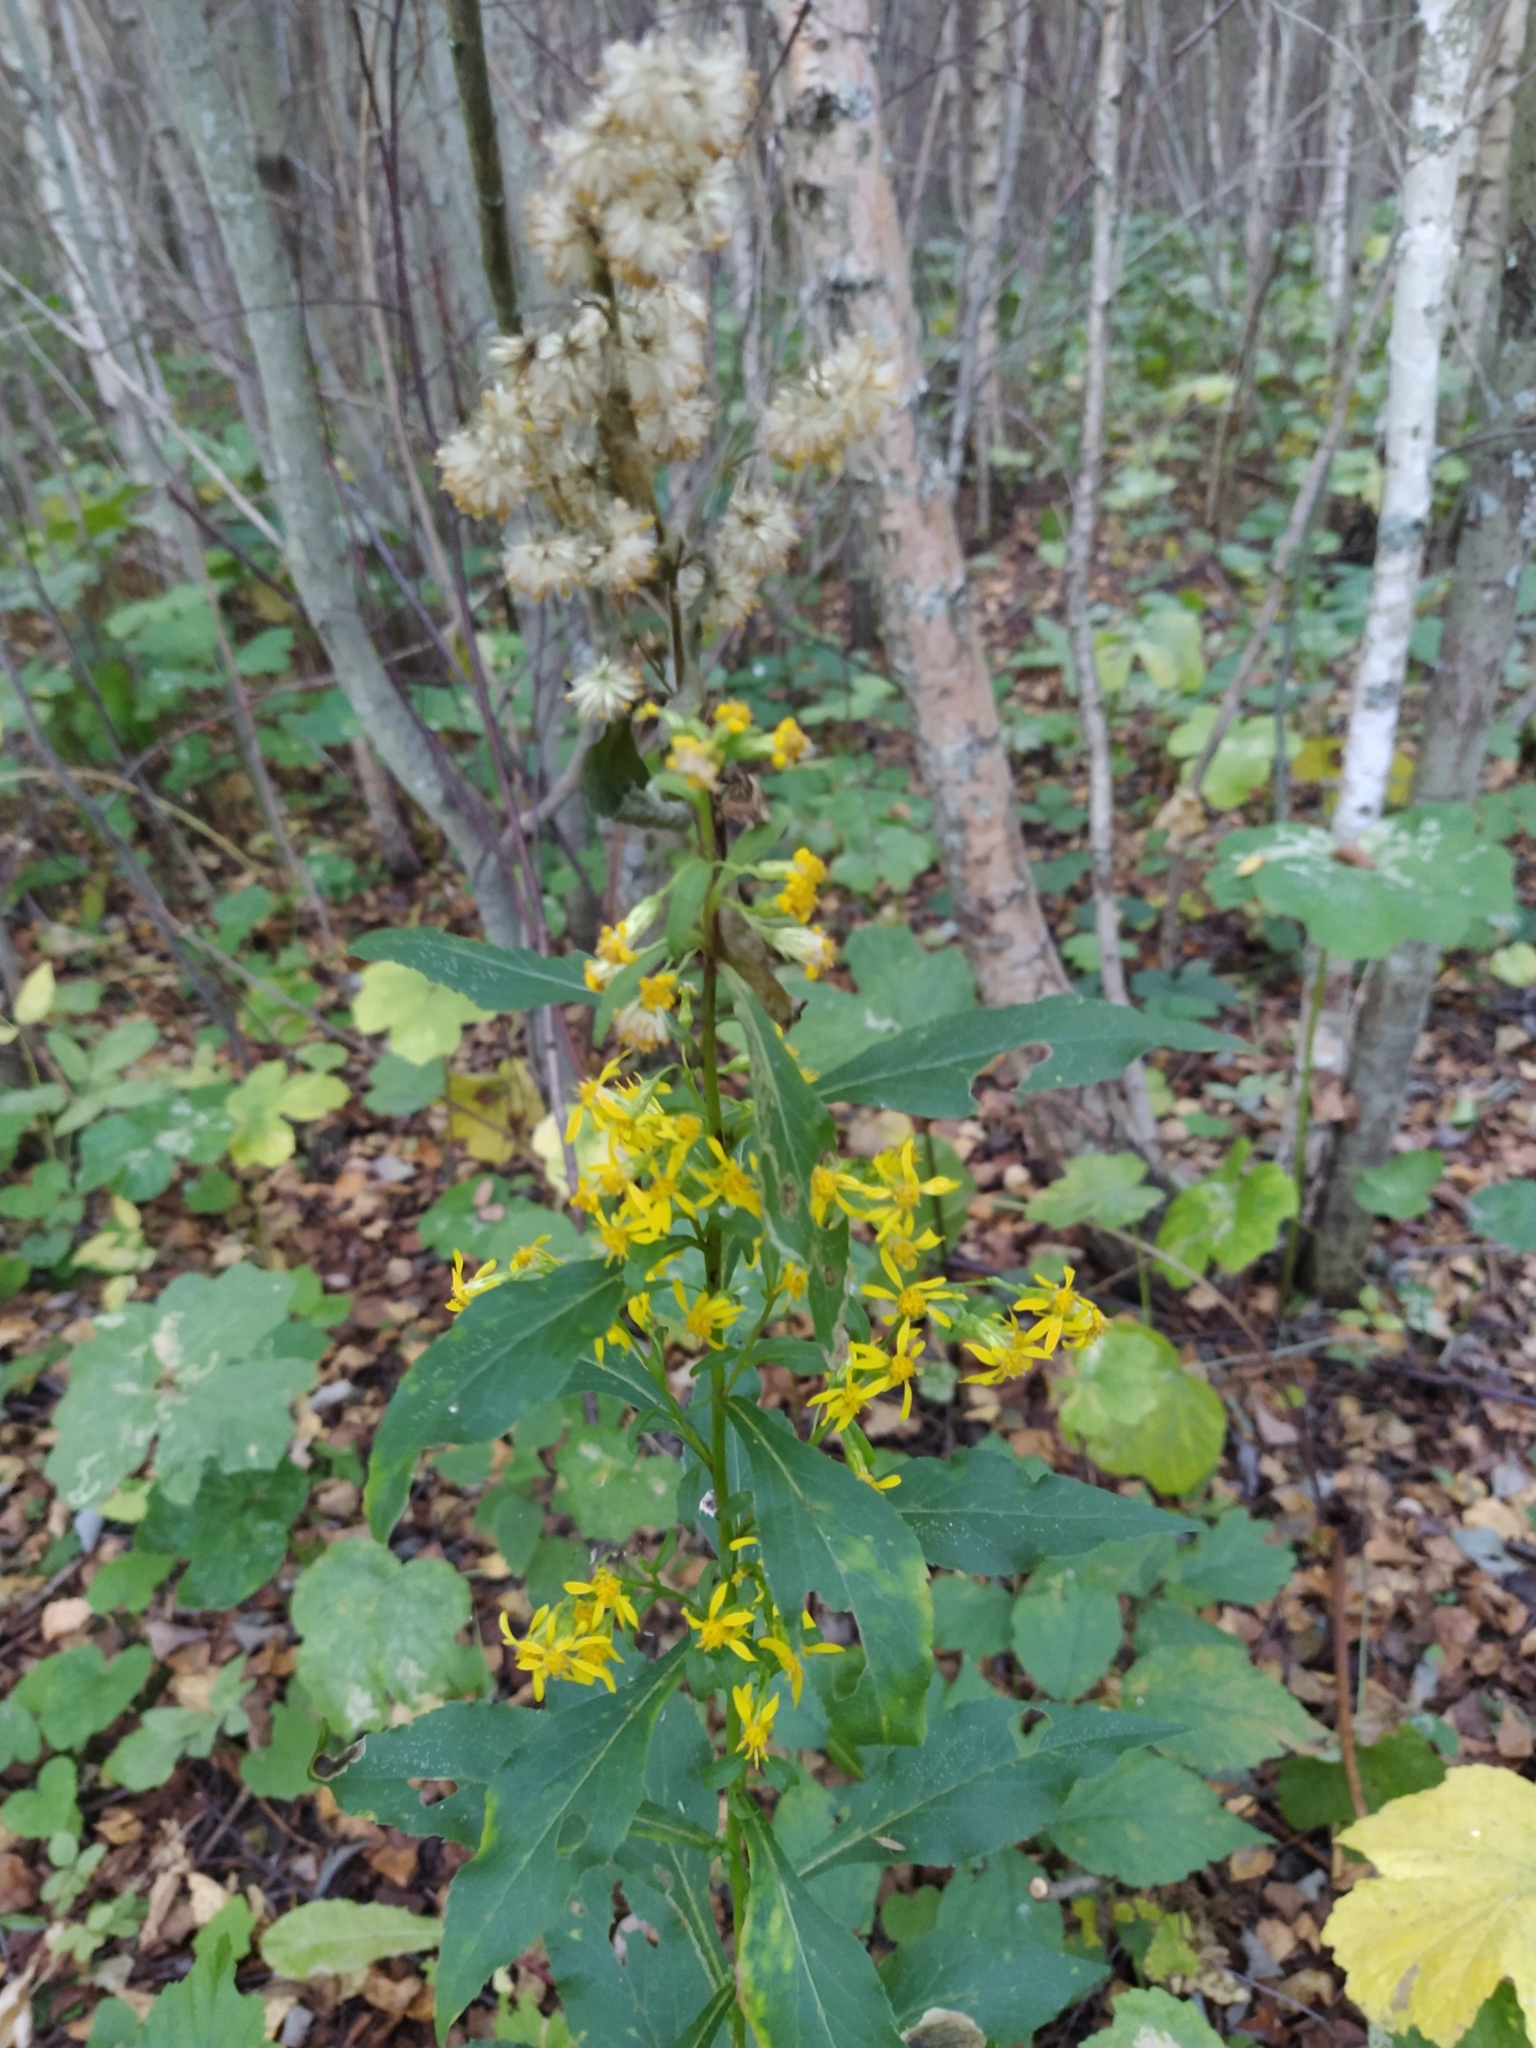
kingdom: Plantae
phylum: Tracheophyta
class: Magnoliopsida
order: Asterales
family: Asteraceae
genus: Solidago
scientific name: Solidago virgaurea
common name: Goldenrod
